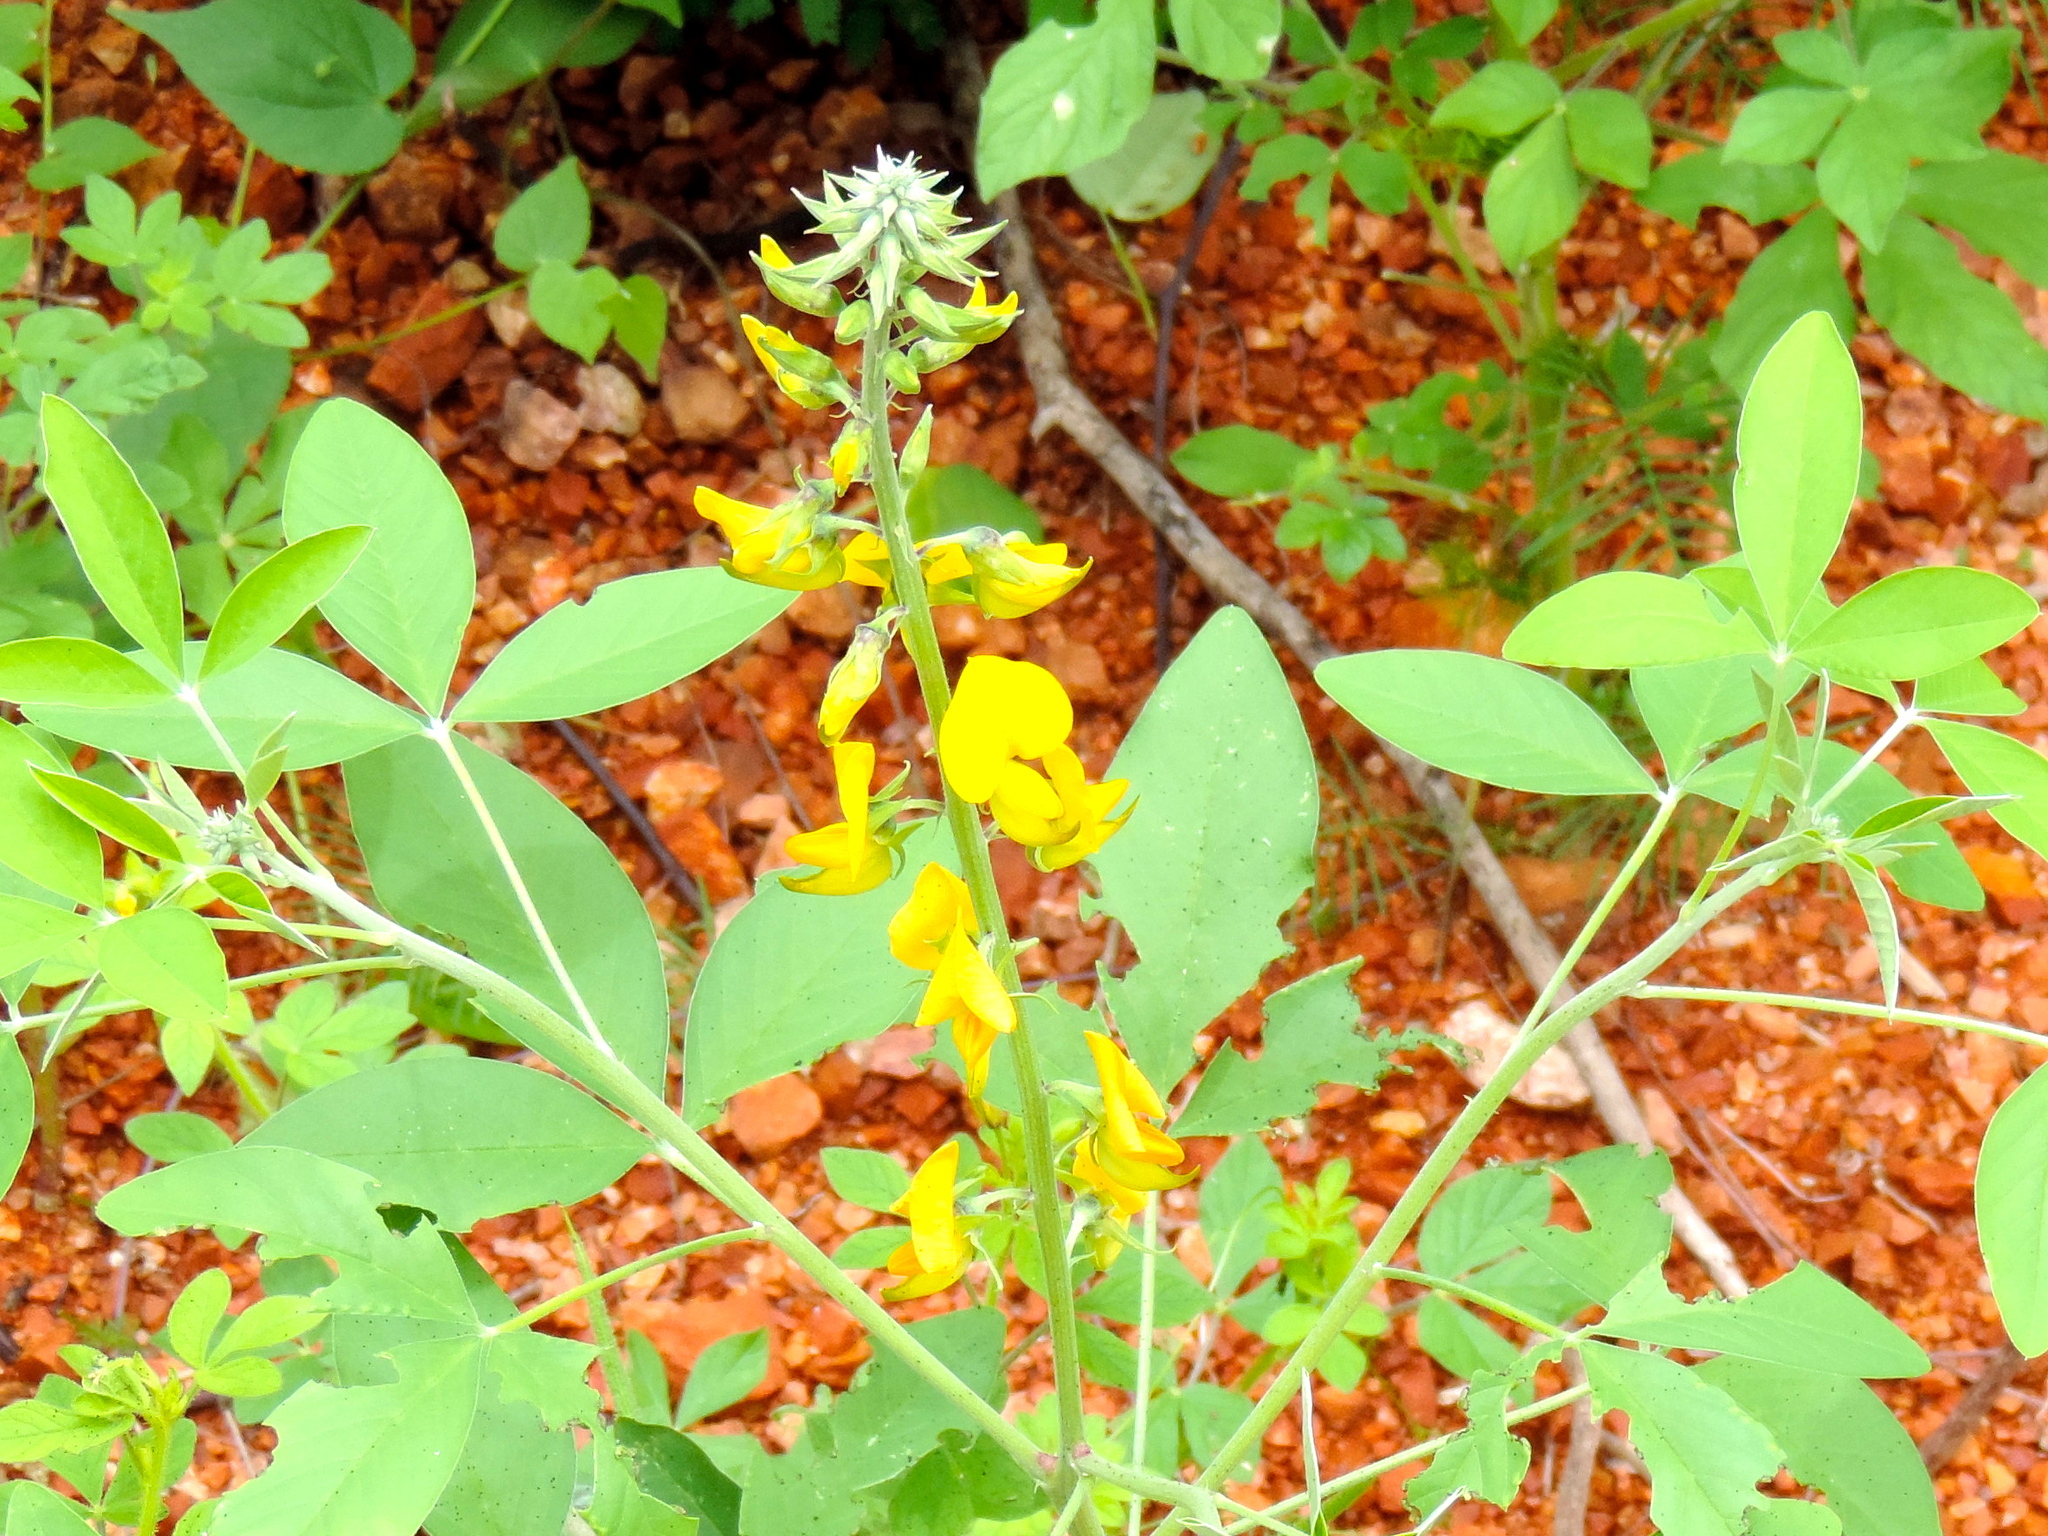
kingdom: Plantae
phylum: Tracheophyta
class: Magnoliopsida
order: Fabales
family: Fabaceae
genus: Crotalaria
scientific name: Crotalaria
